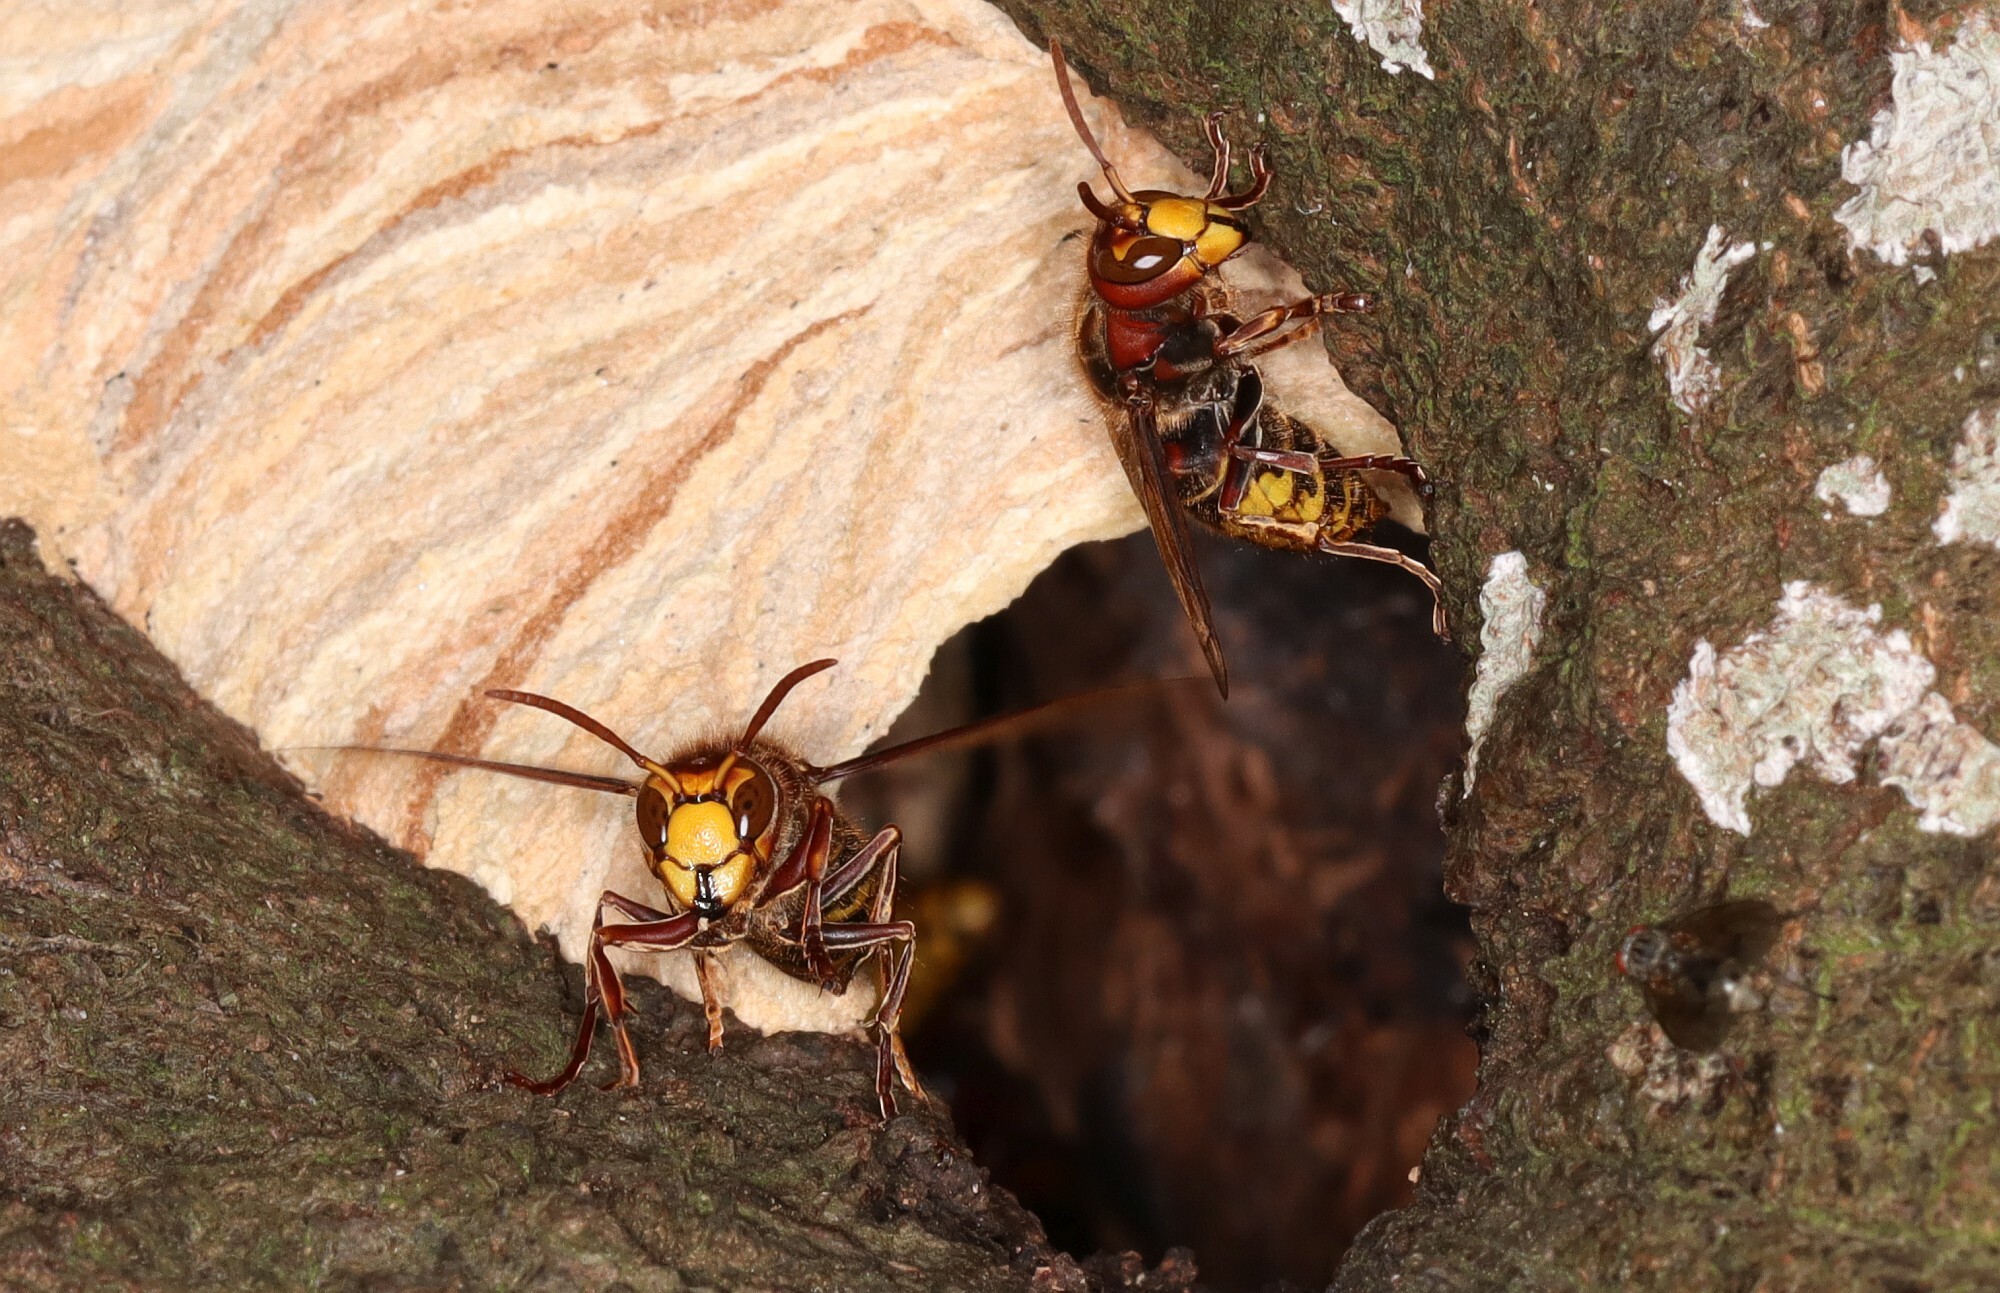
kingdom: Animalia
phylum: Arthropoda
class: Insecta
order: Hymenoptera
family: Vespidae
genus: Vespa
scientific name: Vespa crabro
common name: Hornet
